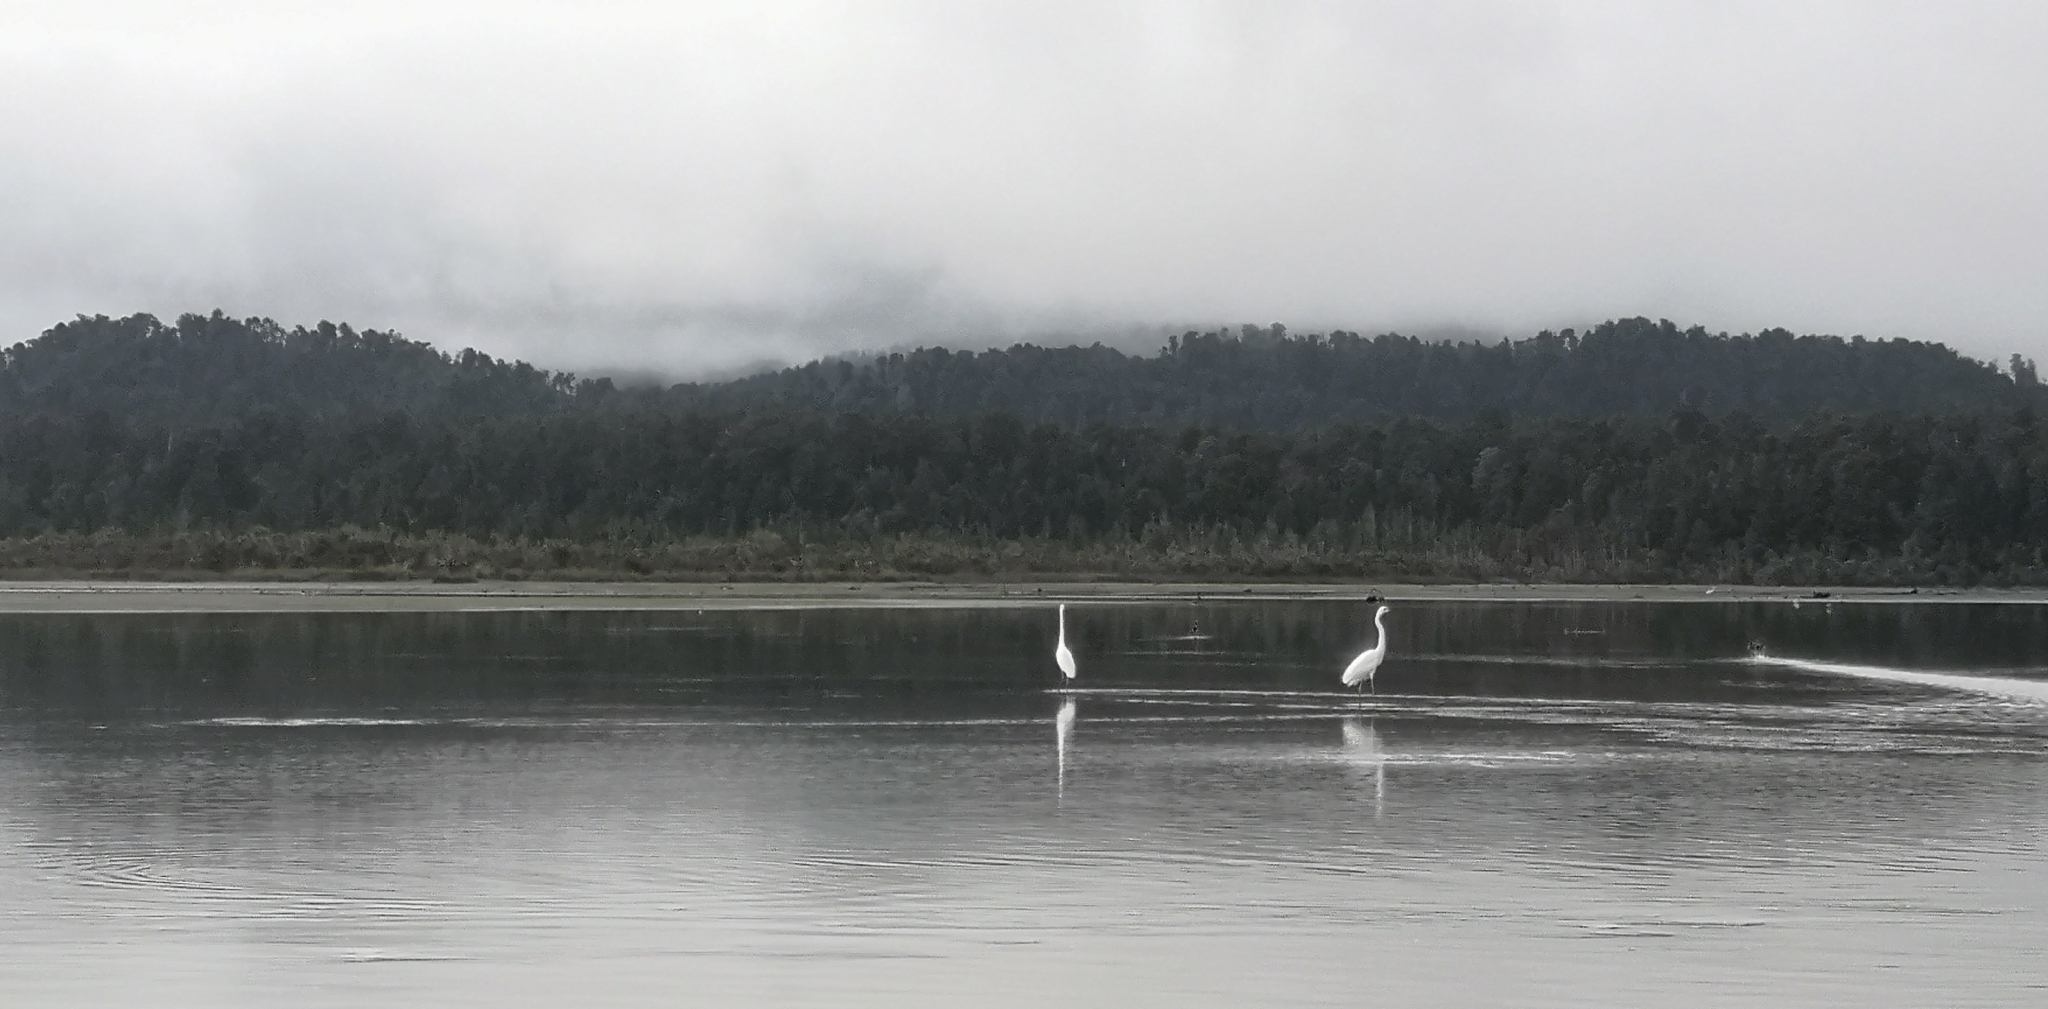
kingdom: Animalia
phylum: Chordata
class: Aves
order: Pelecaniformes
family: Ardeidae
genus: Ardea
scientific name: Ardea modesta
